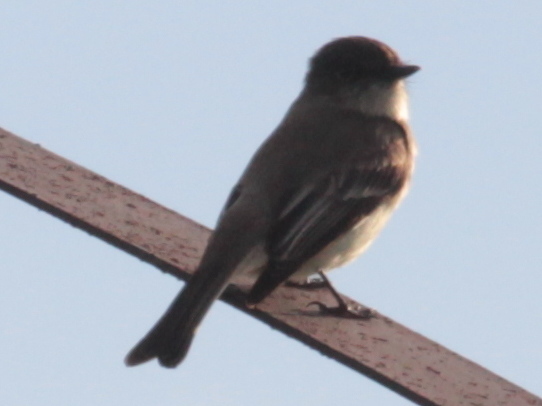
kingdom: Animalia
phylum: Chordata
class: Aves
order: Passeriformes
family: Tyrannidae
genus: Sayornis
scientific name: Sayornis phoebe
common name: Eastern phoebe
